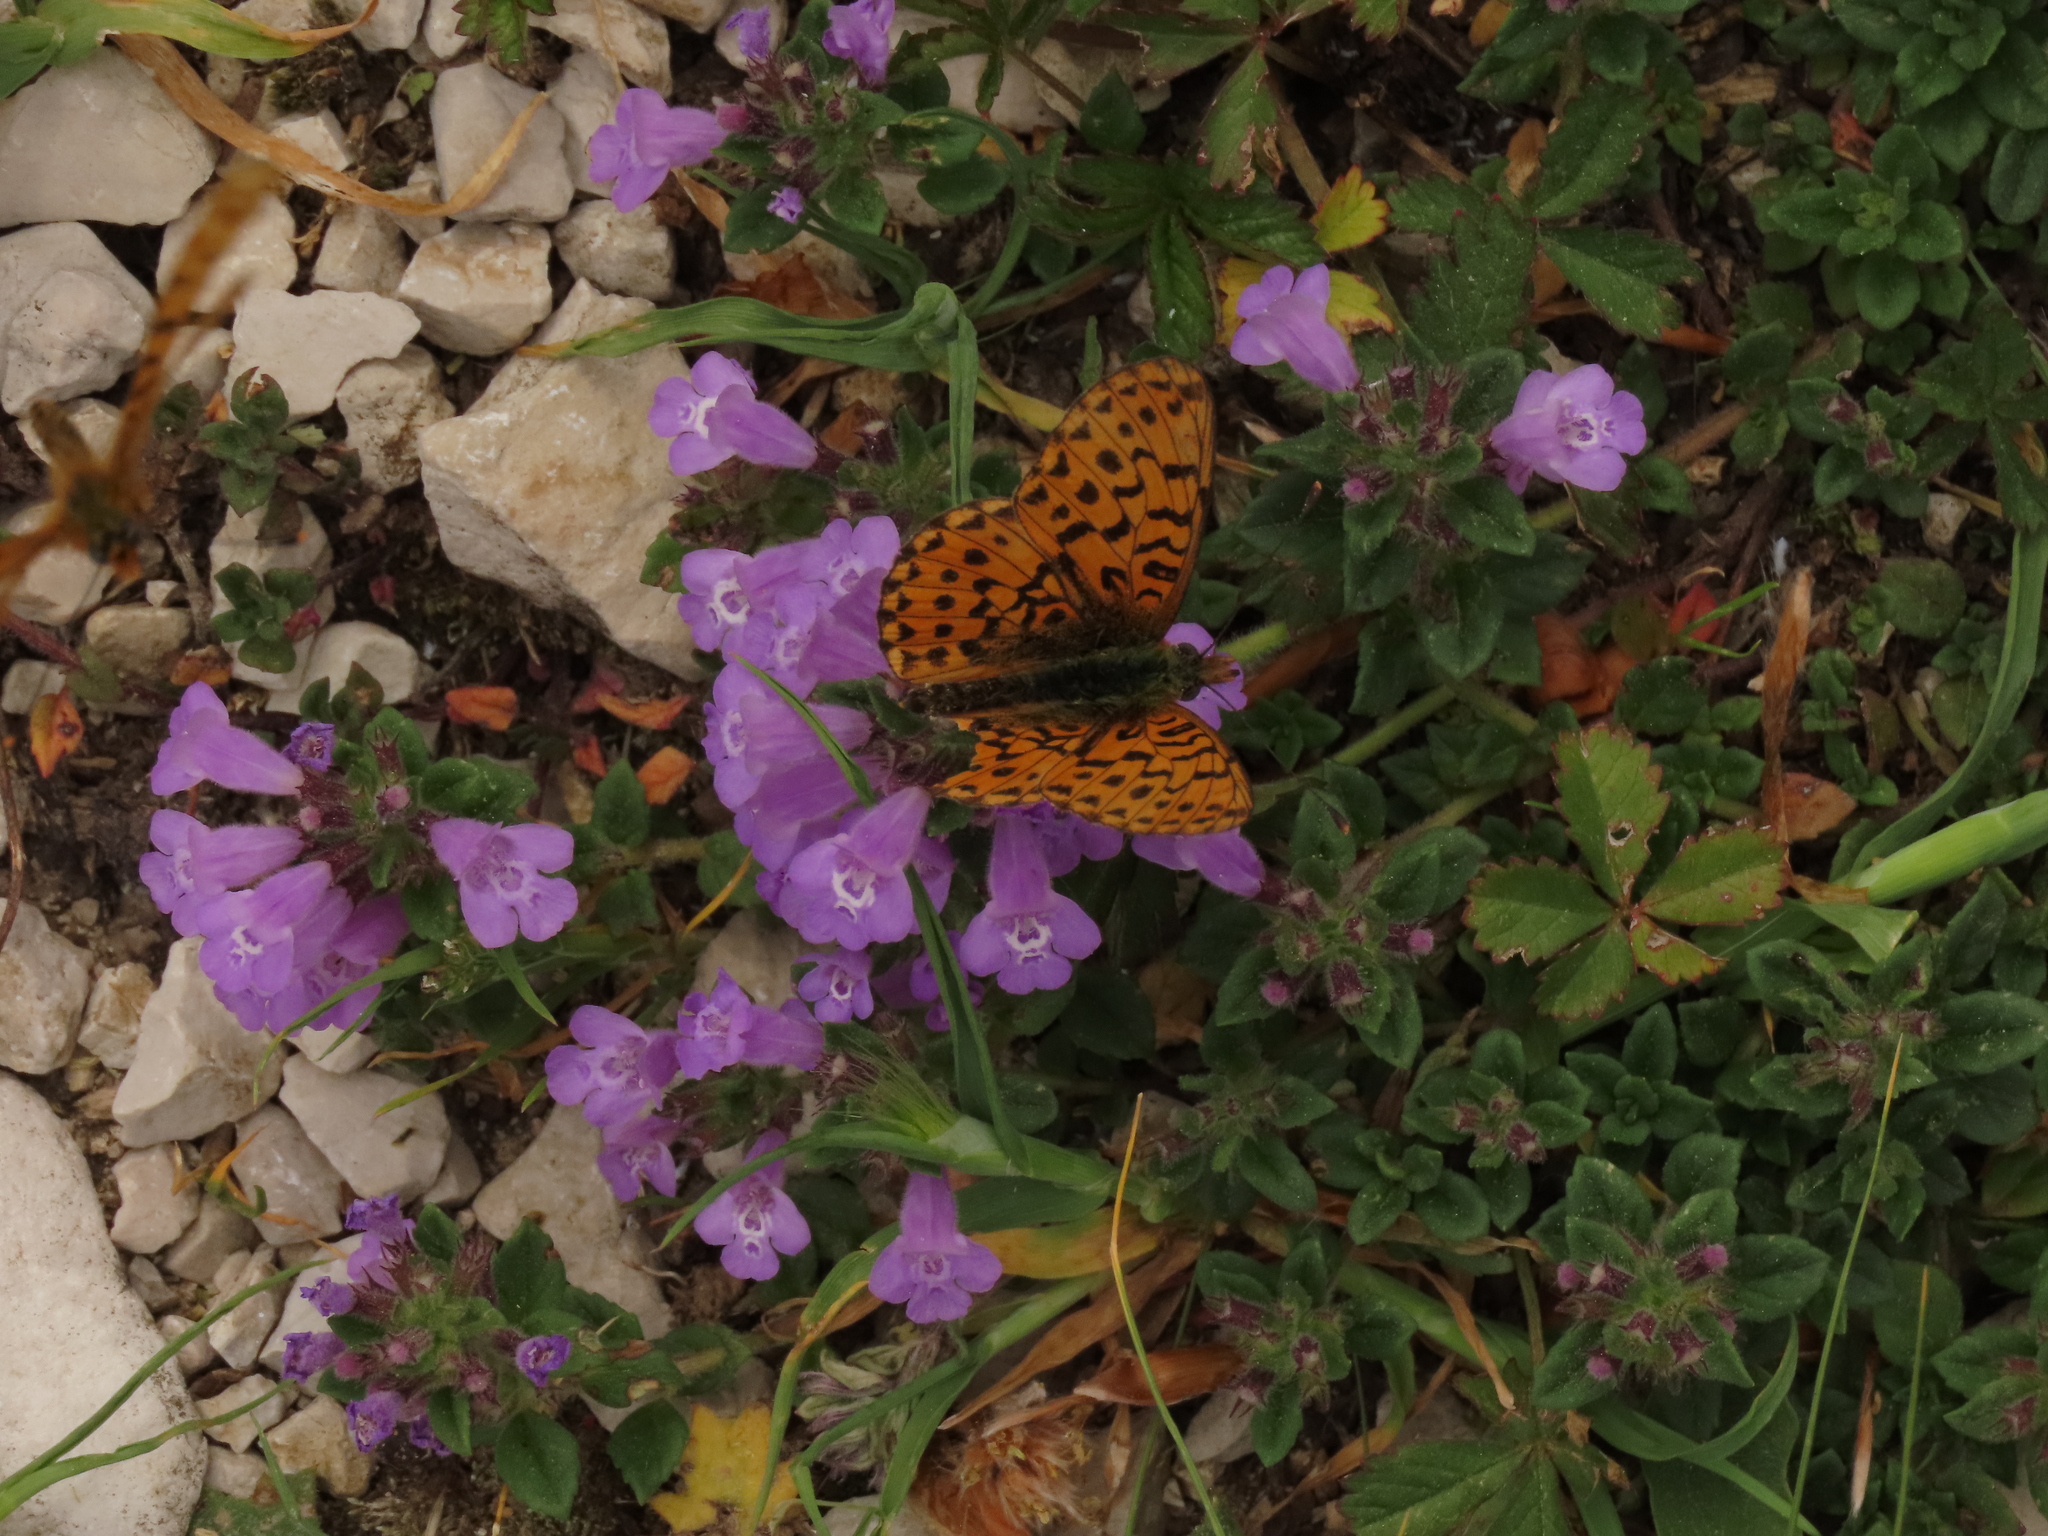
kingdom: Plantae
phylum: Tracheophyta
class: Magnoliopsida
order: Lamiales
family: Lamiaceae
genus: Clinopodium
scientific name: Clinopodium alpinum
